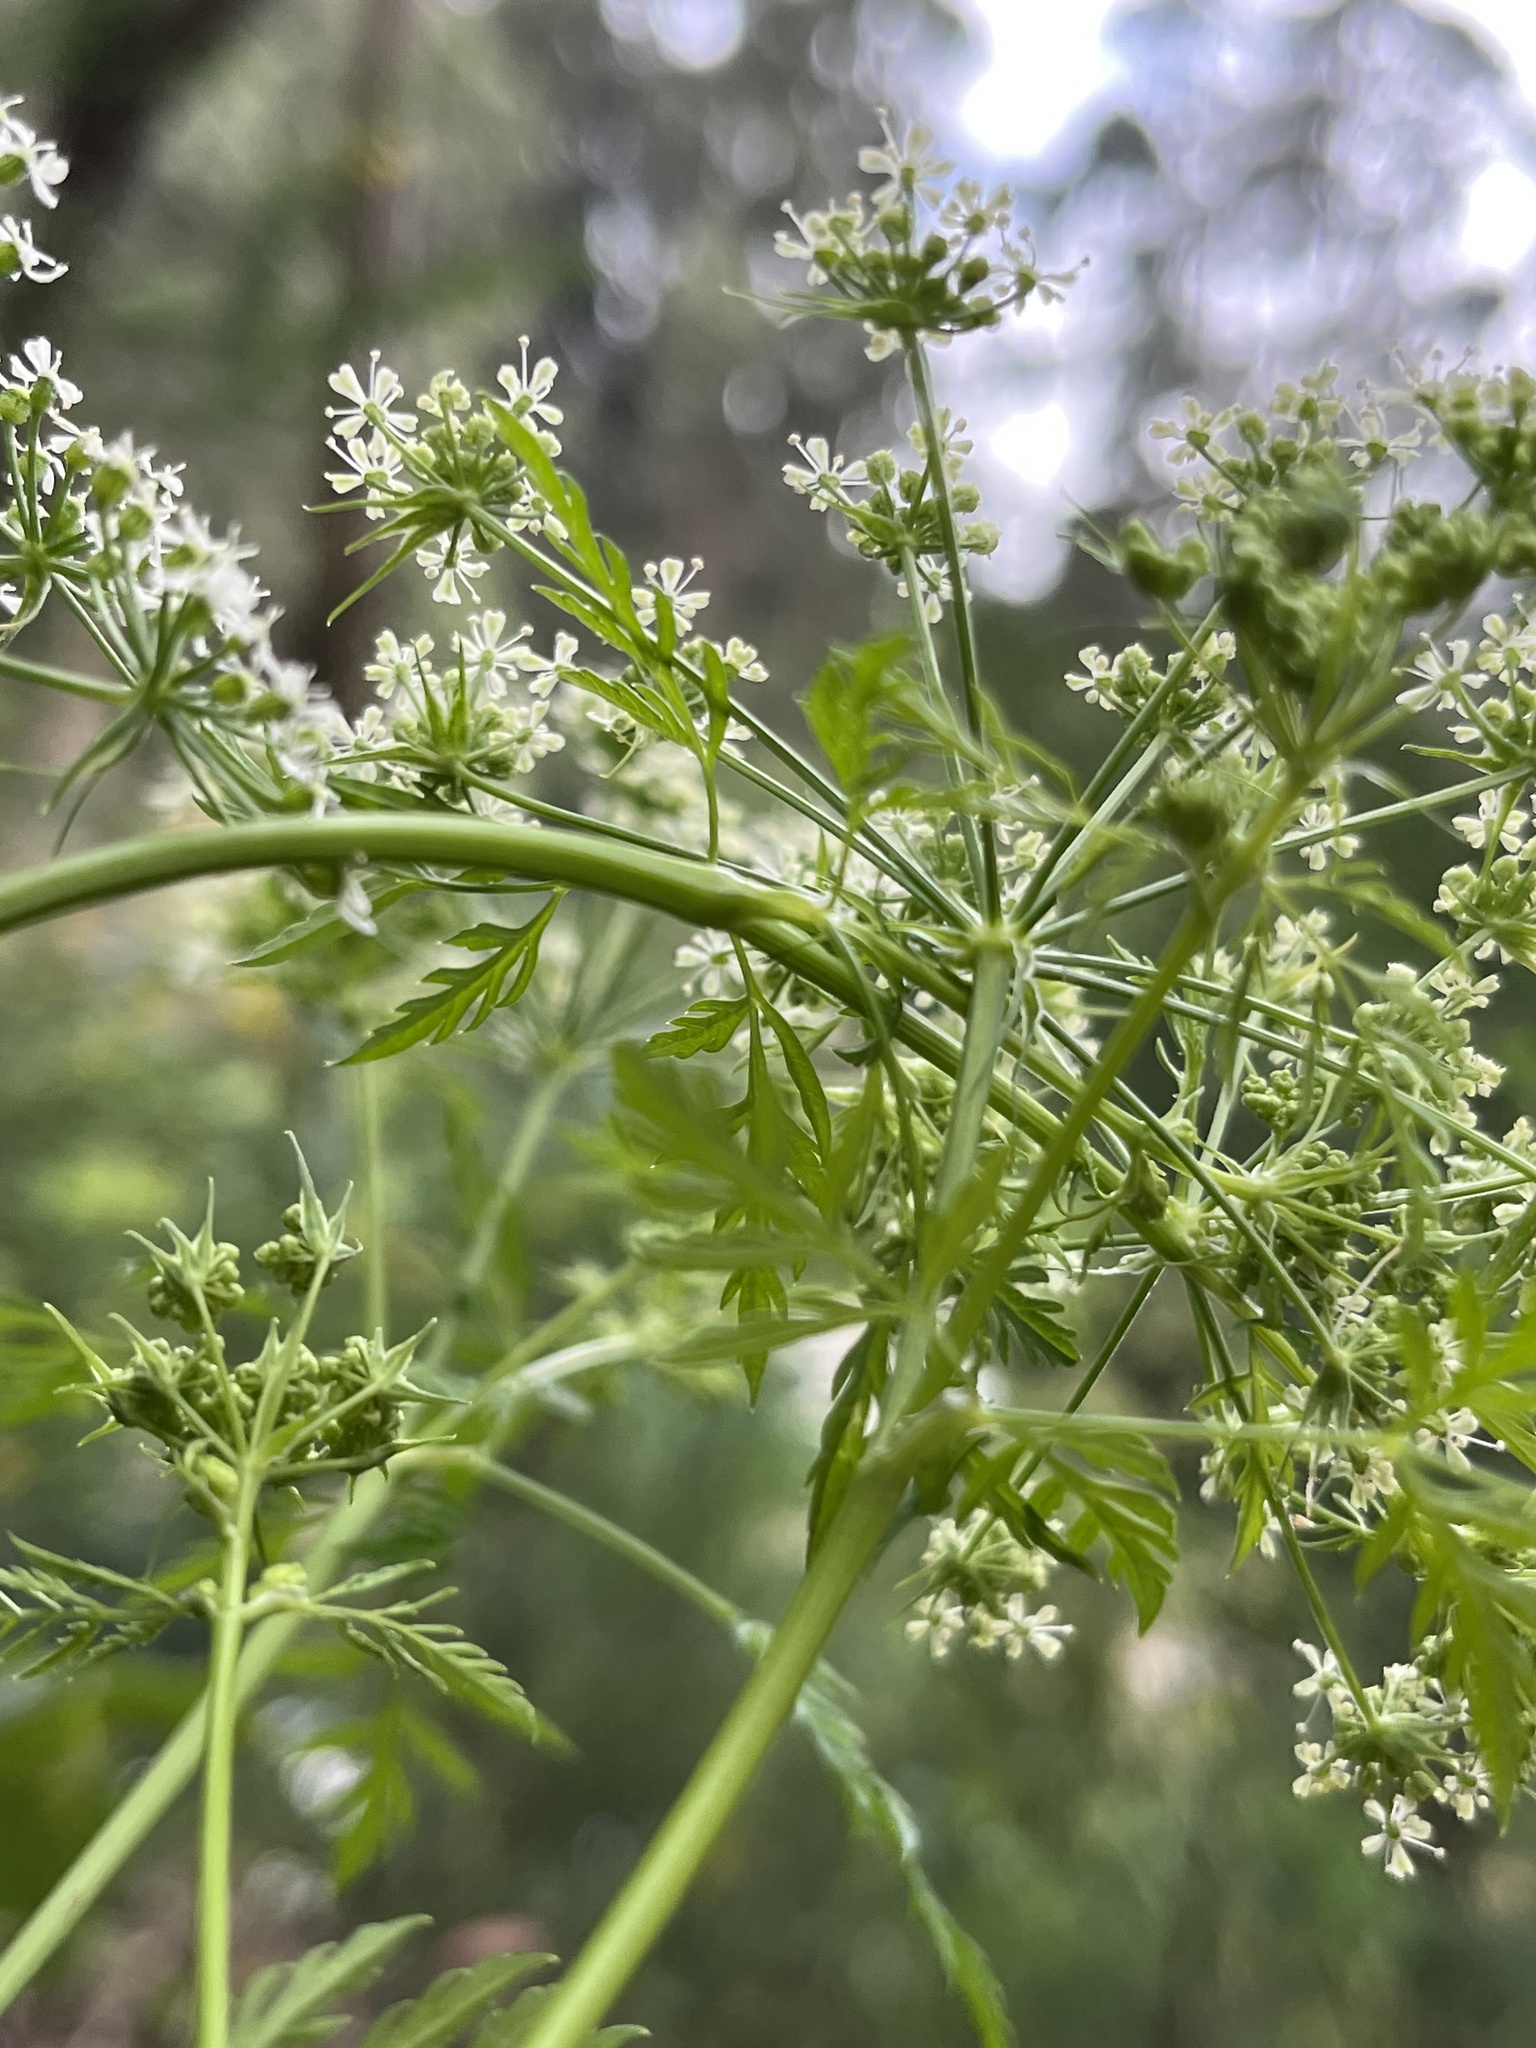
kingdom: Plantae
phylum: Tracheophyta
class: Magnoliopsida
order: Apiales
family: Apiaceae
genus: Conium
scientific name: Conium maculatum
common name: Hemlock
